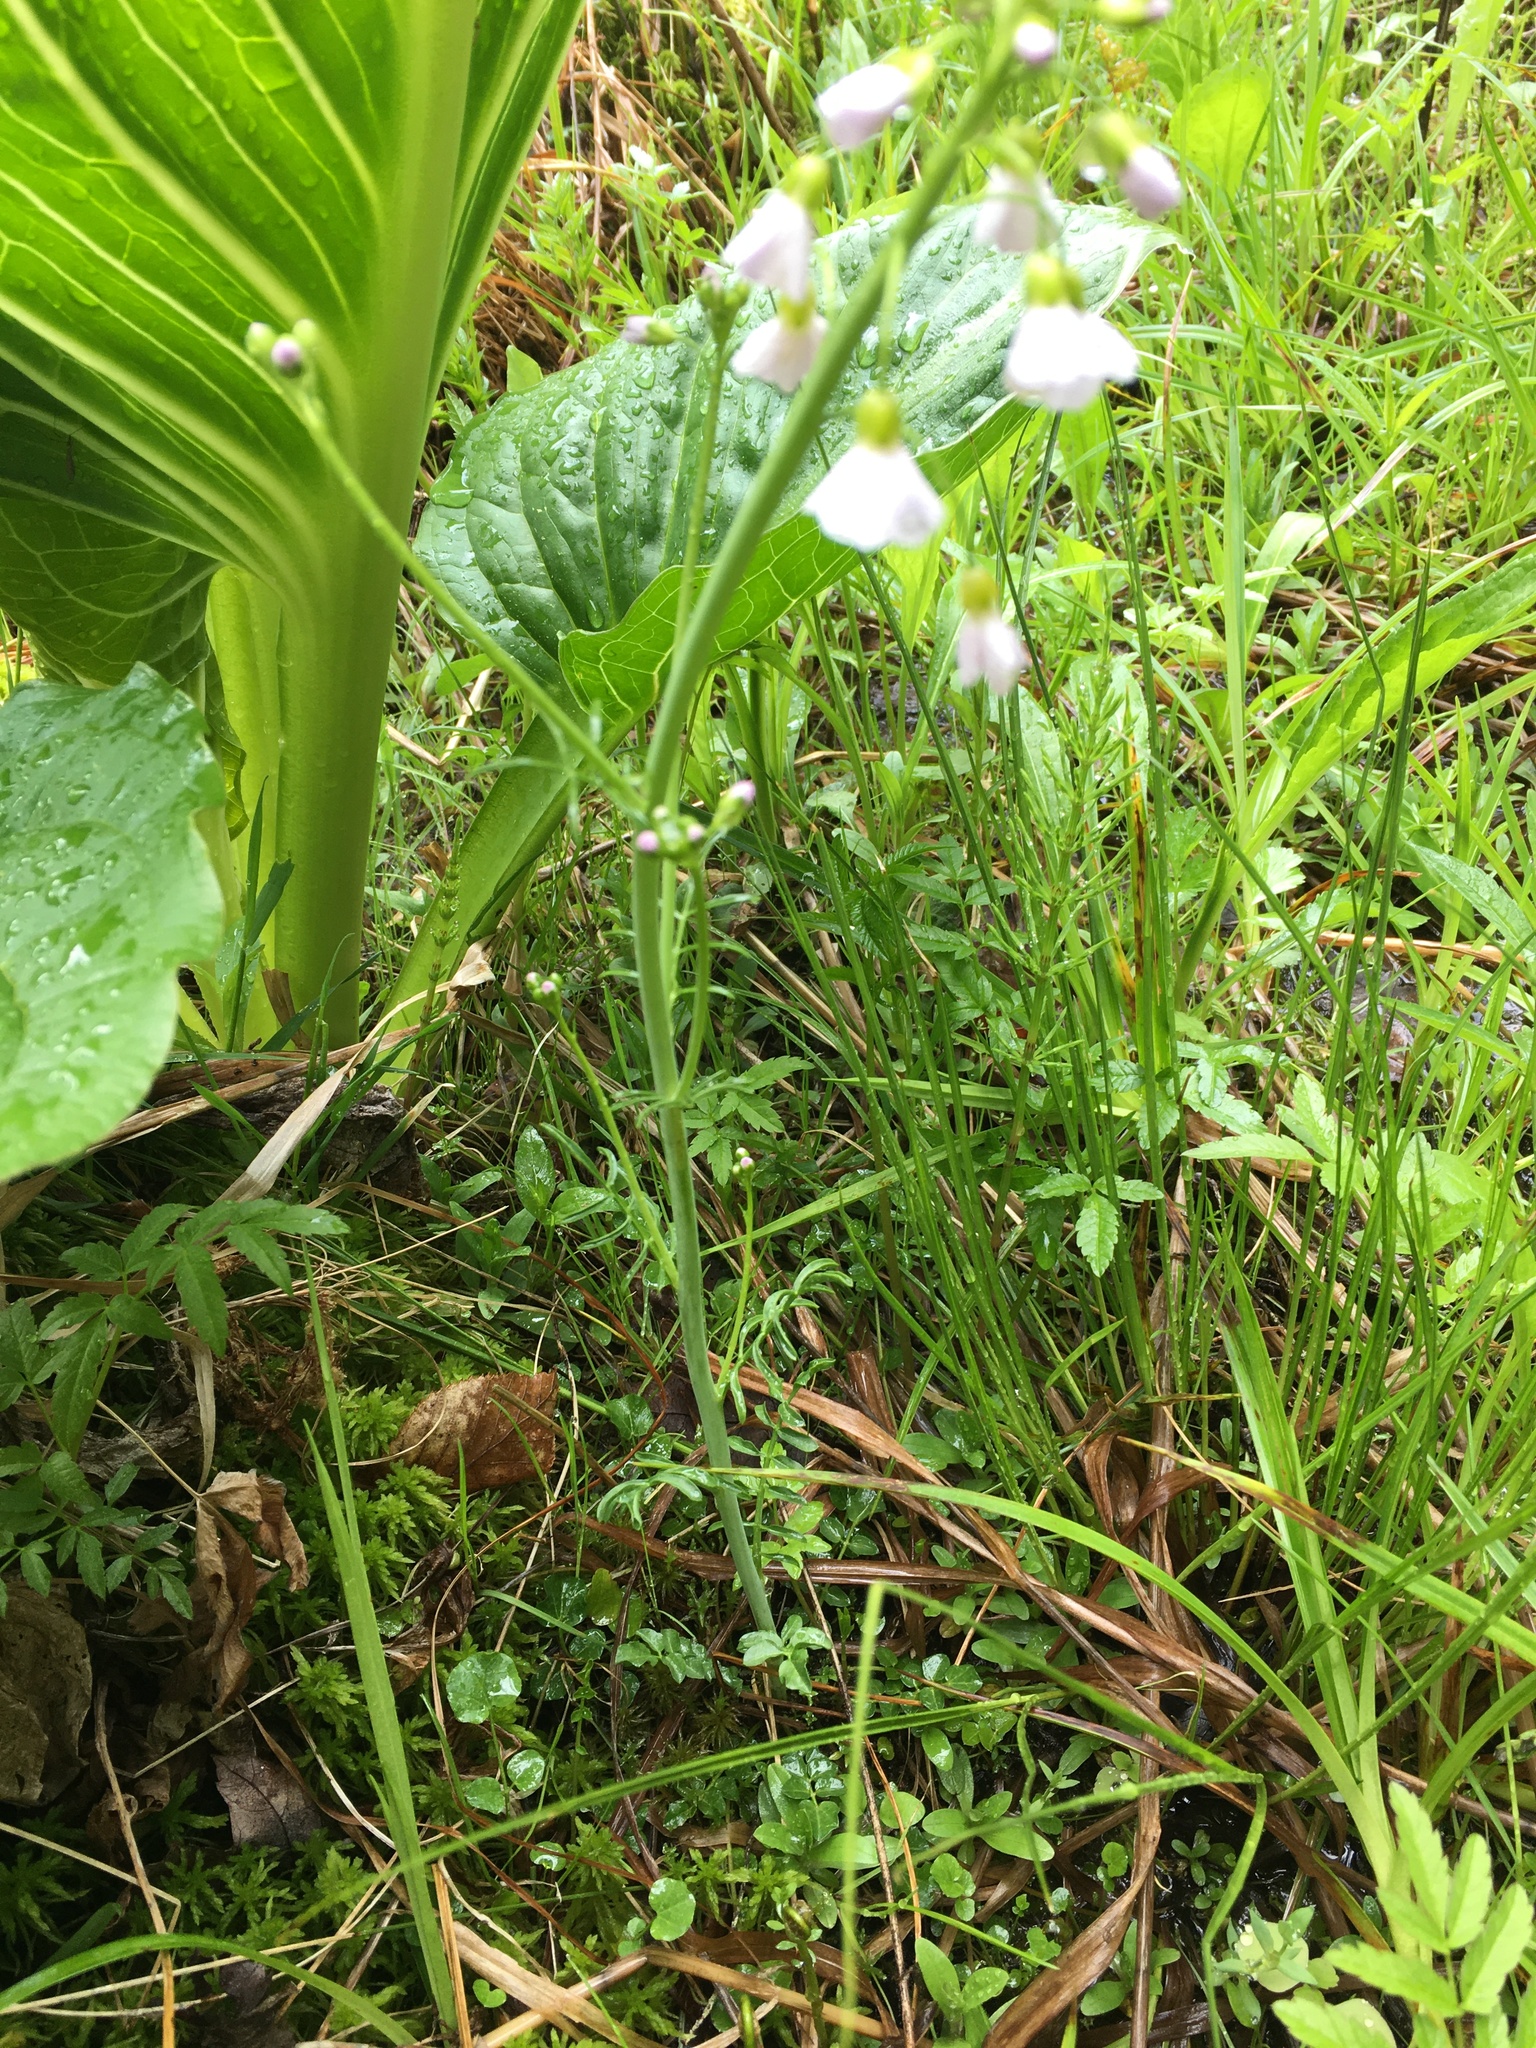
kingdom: Plantae
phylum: Tracheophyta
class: Magnoliopsida
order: Brassicales
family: Brassicaceae
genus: Cardamine
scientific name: Cardamine pratensis
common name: Cuckoo flower
